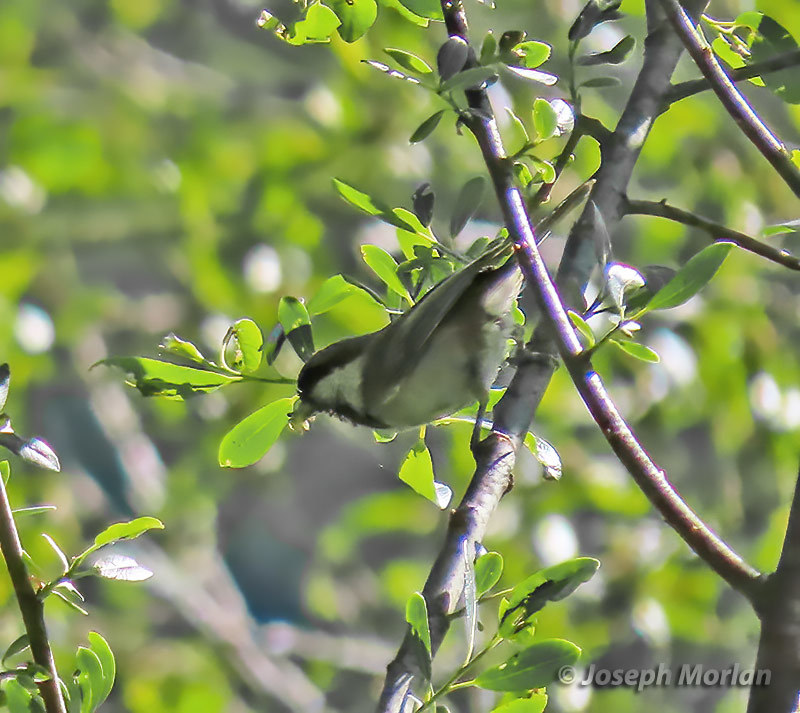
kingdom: Animalia
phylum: Chordata
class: Aves
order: Passeriformes
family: Paridae
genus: Poecile
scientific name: Poecile rufescens
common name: Chestnut-backed chickadee
